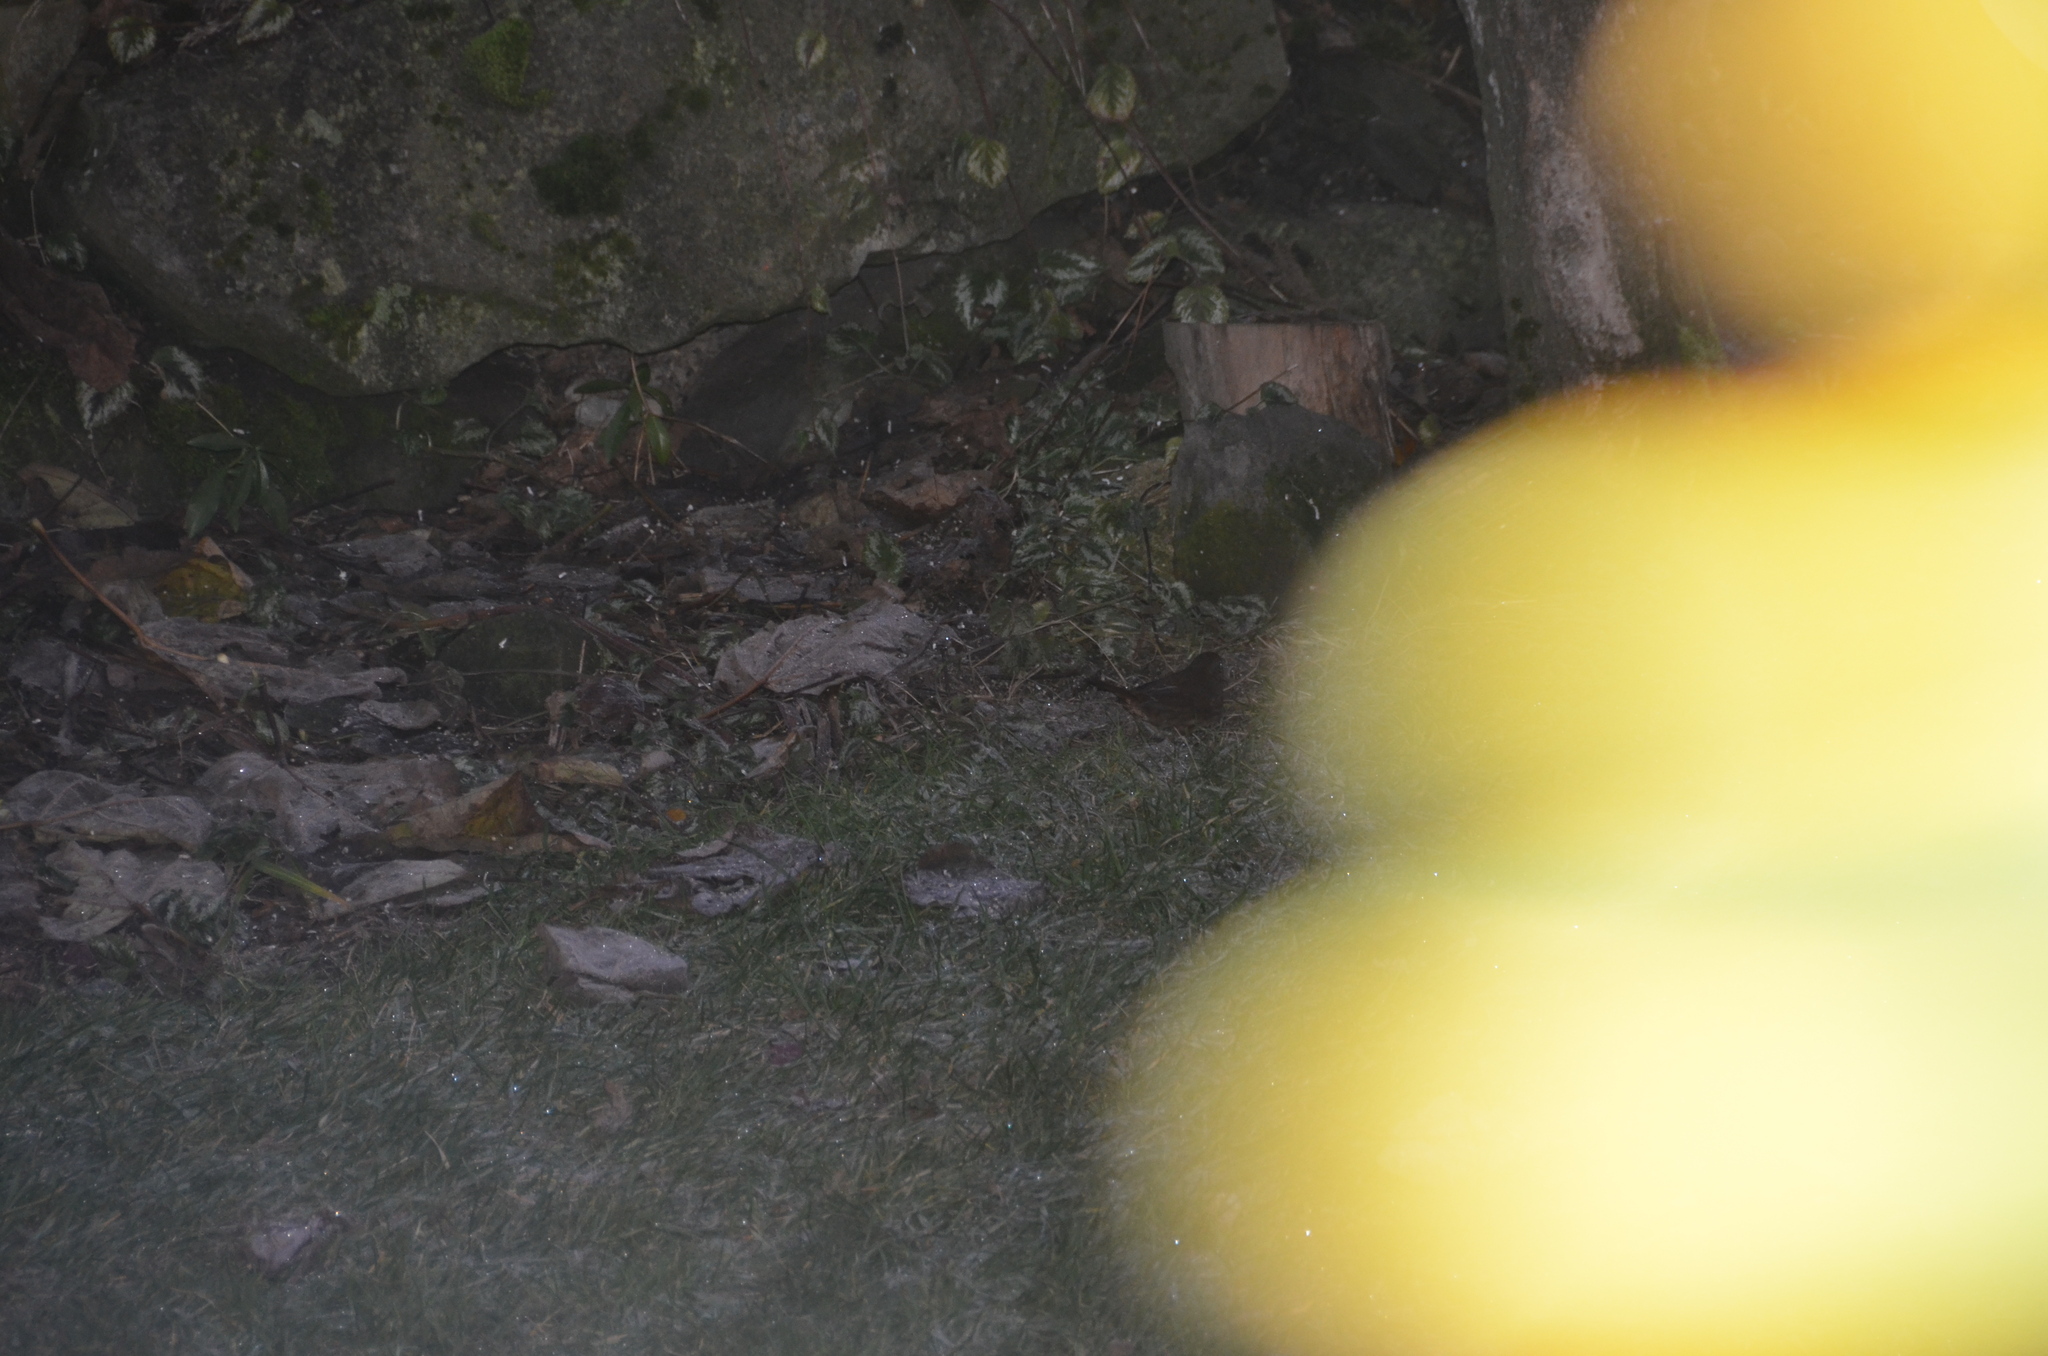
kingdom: Animalia
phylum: Chordata
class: Aves
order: Passeriformes
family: Passerellidae
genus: Passerella
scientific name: Passerella iliaca
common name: Fox sparrow
